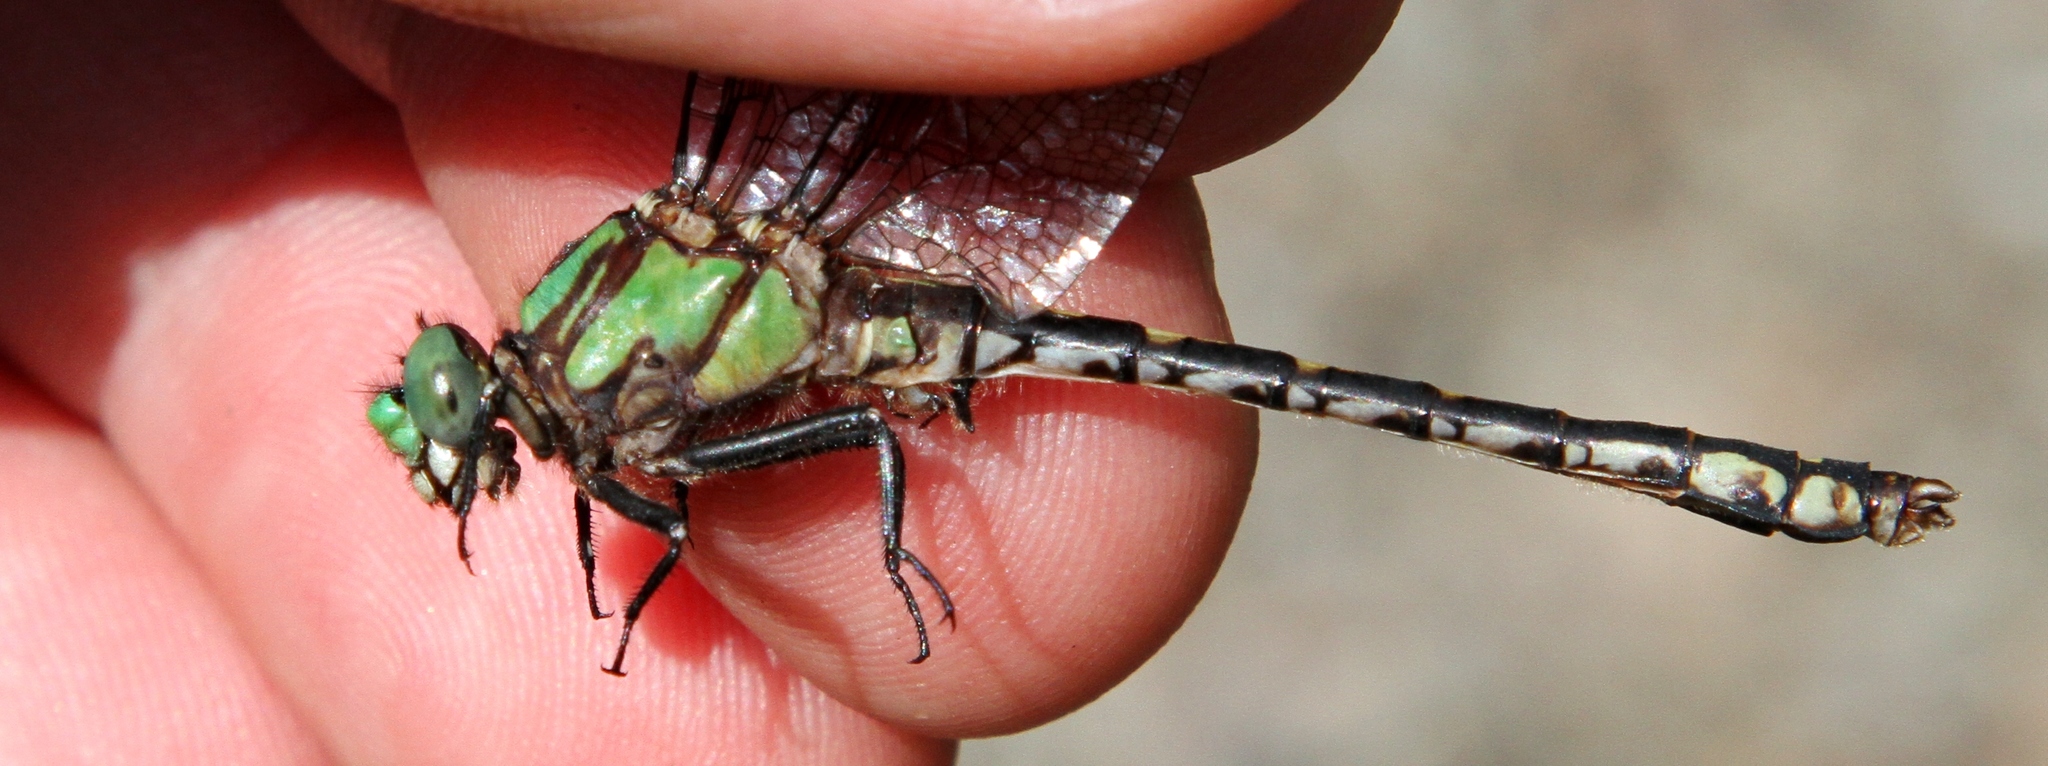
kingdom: Animalia
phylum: Arthropoda
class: Insecta
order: Odonata
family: Gomphidae
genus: Ophiogomphus
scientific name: Ophiogomphus carolus
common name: Riffle snaketail
